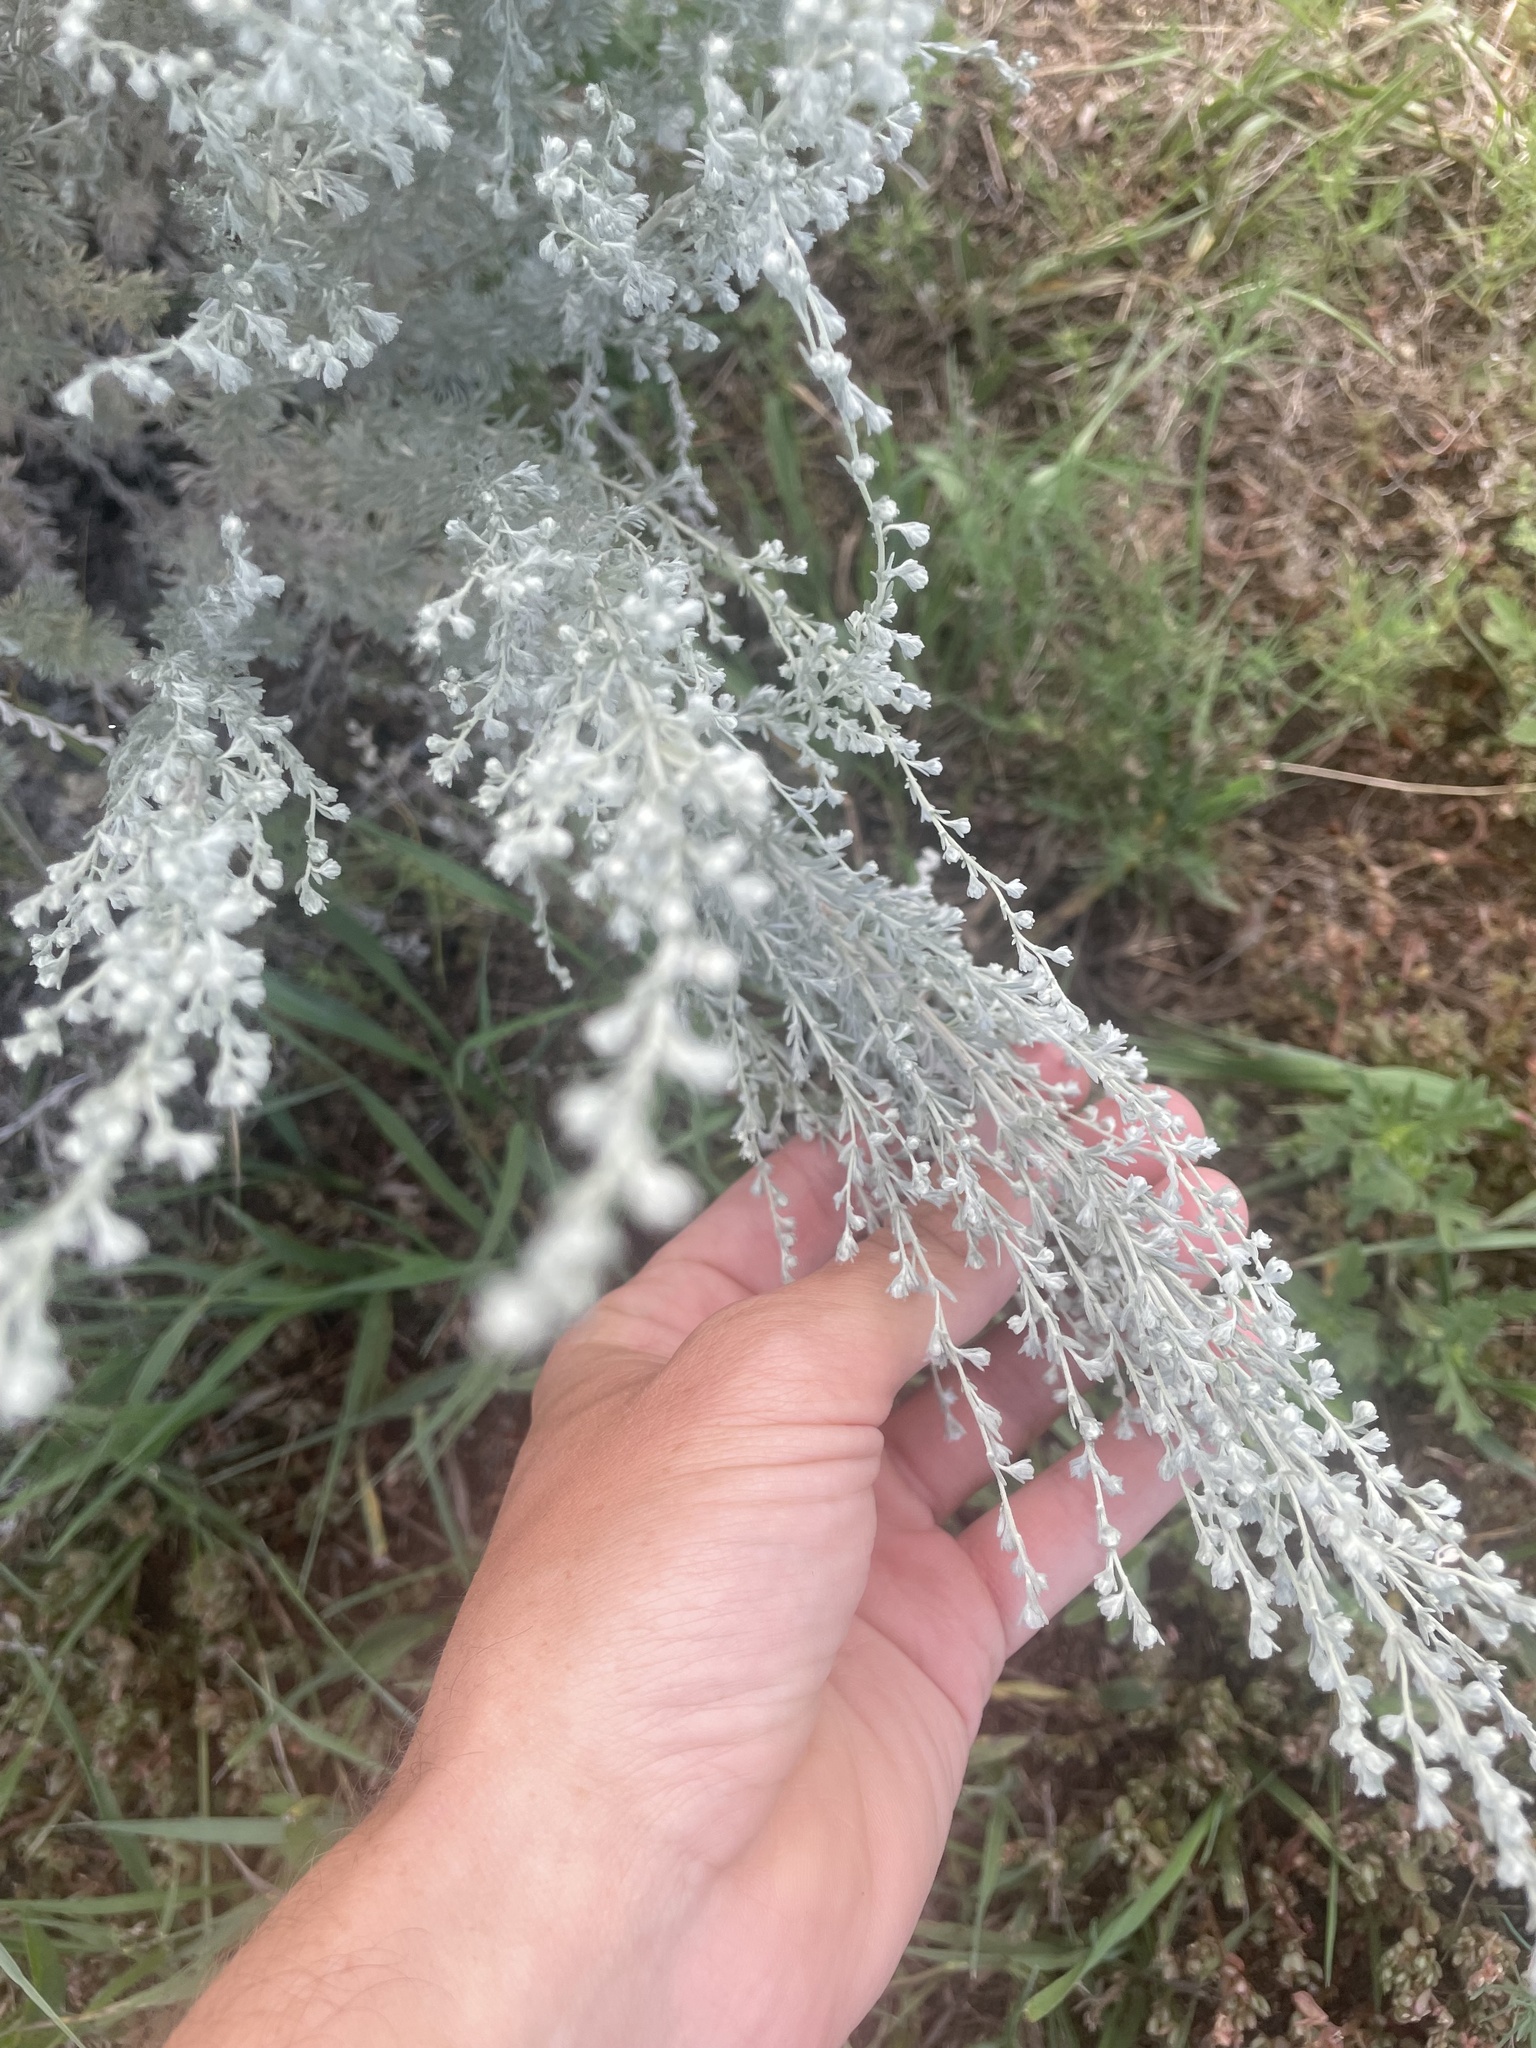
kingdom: Plantae
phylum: Tracheophyta
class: Magnoliopsida
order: Asterales
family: Asteraceae
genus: Artemisia
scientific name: Artemisia frigida
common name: Prairie sagewort
